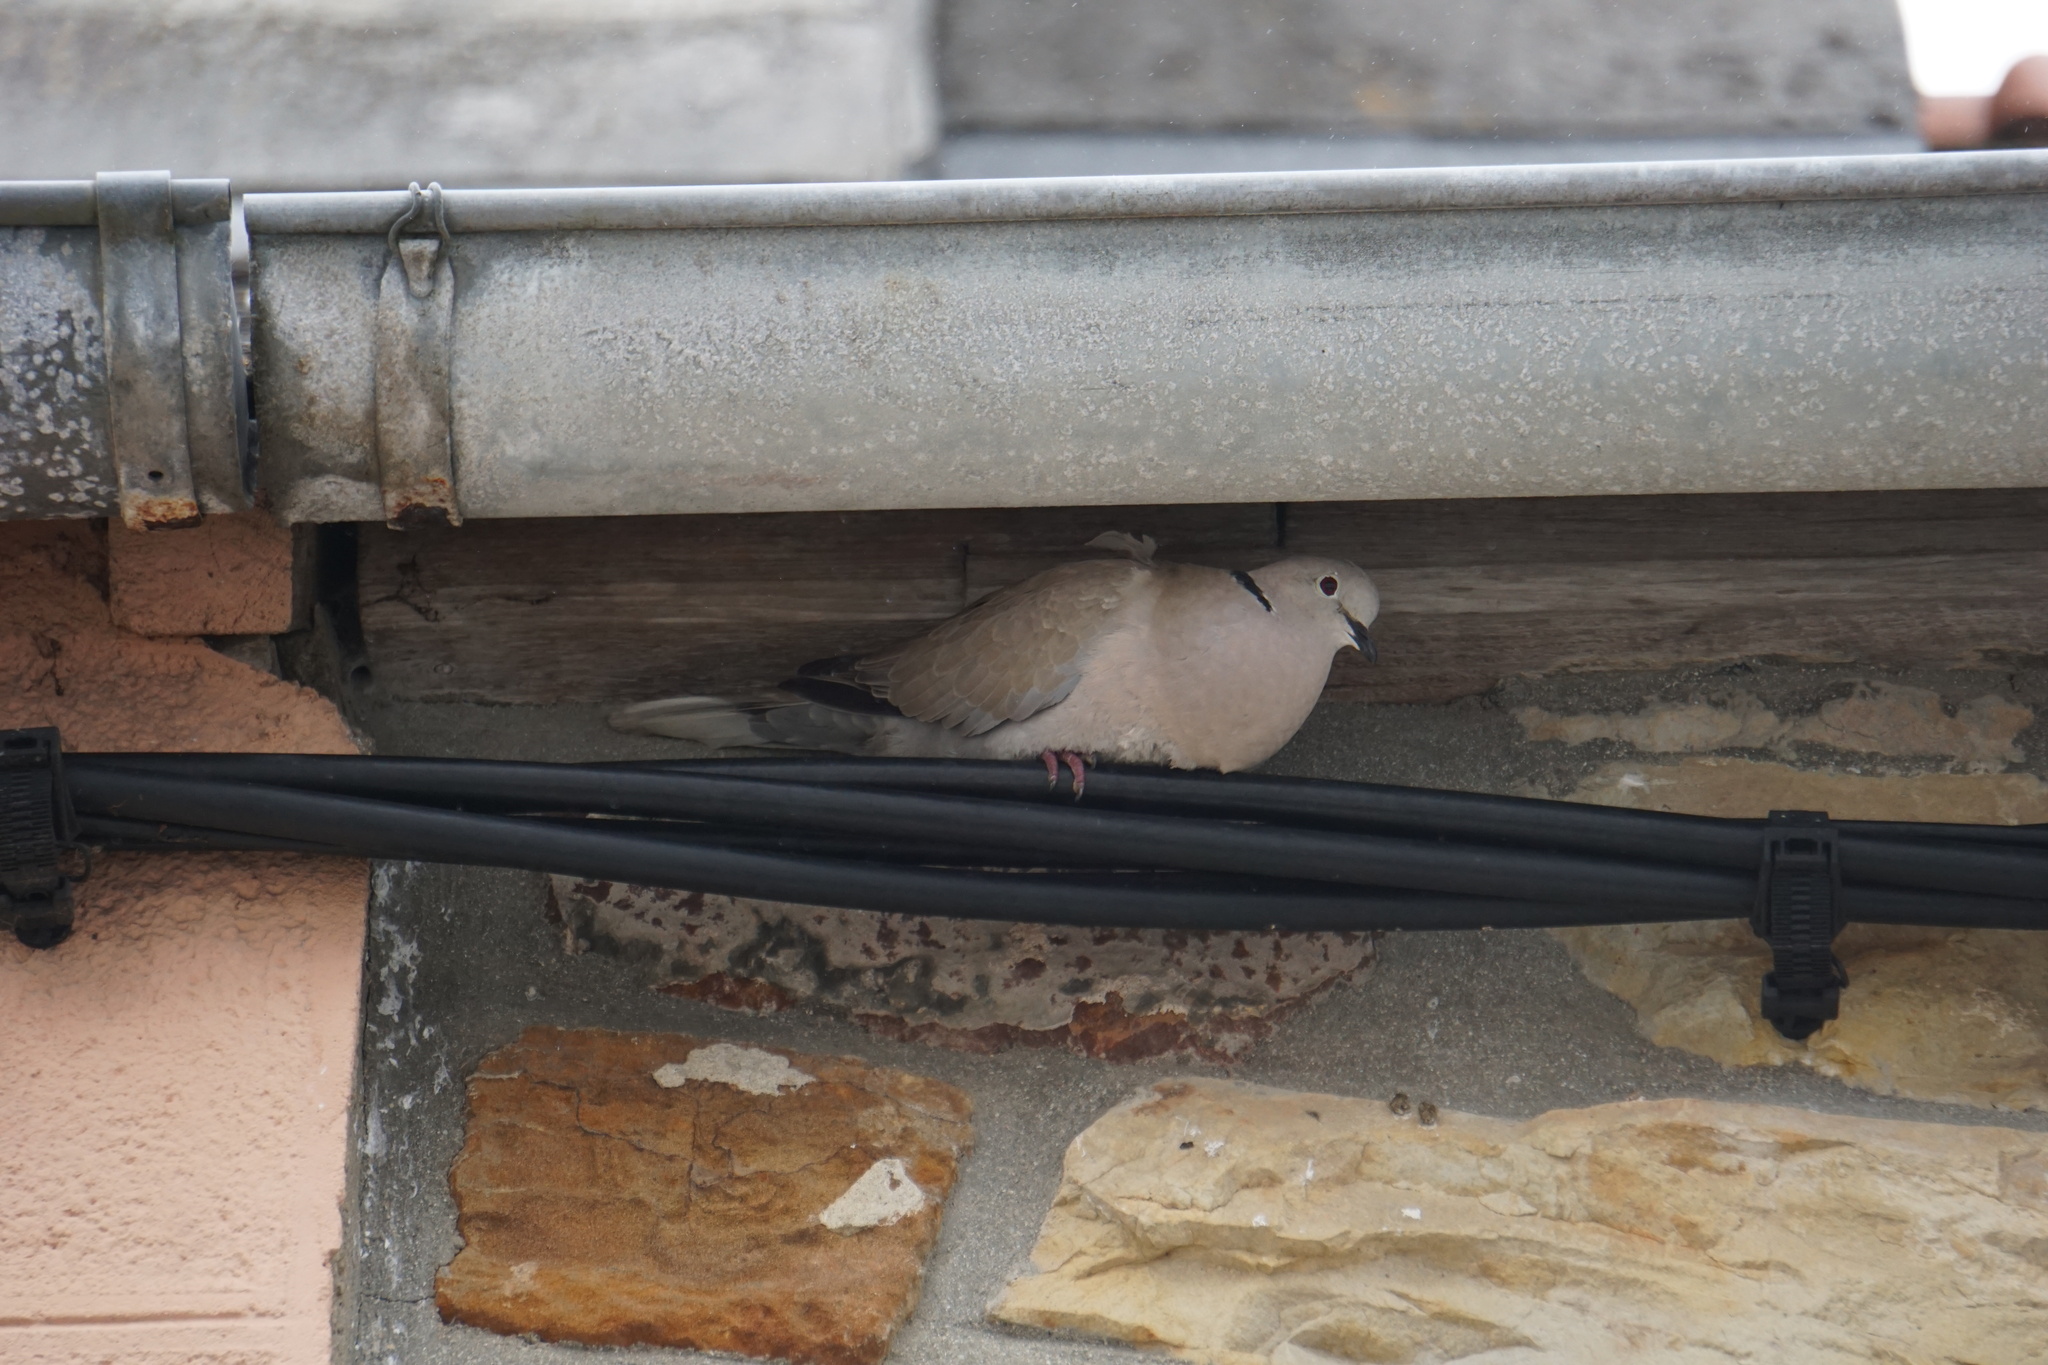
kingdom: Animalia
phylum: Chordata
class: Aves
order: Columbiformes
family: Columbidae
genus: Streptopelia
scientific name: Streptopelia decaocto
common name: Eurasian collared dove
